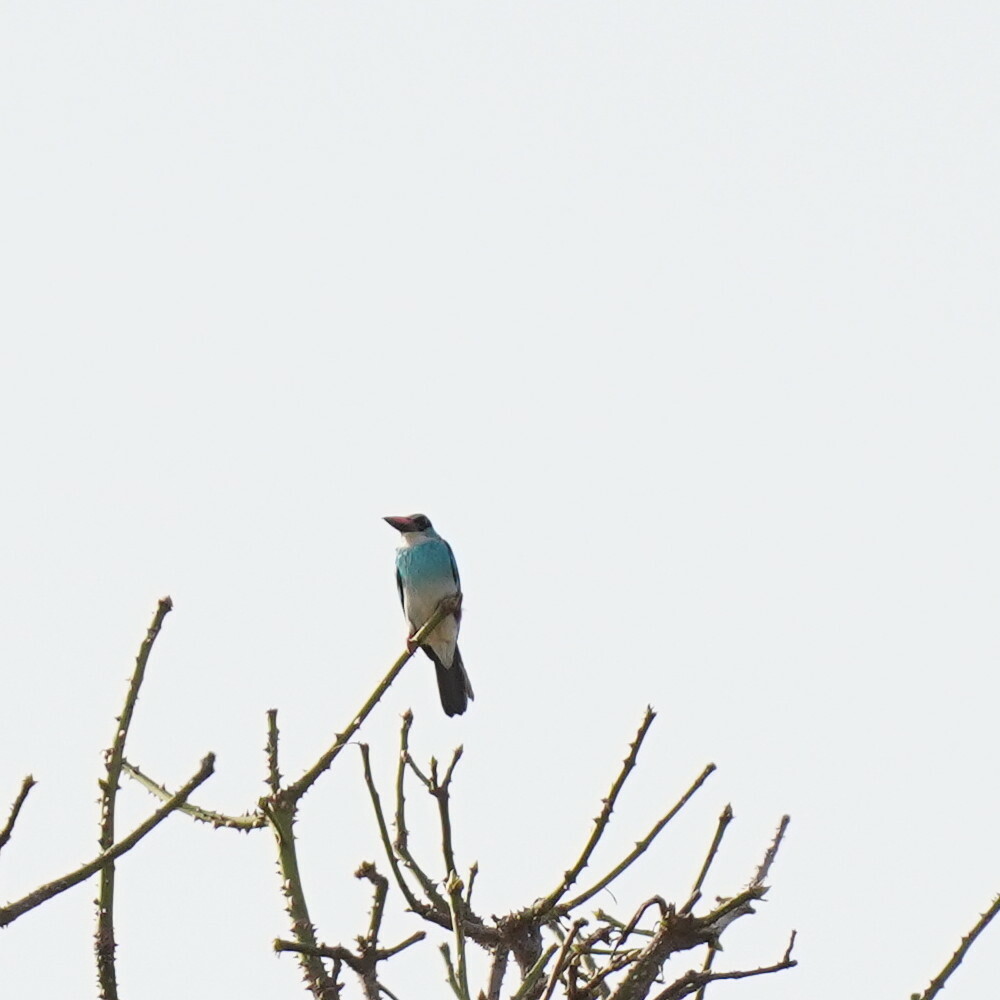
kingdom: Animalia
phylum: Chordata
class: Aves
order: Coraciiformes
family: Alcedinidae
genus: Halcyon
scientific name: Halcyon malimbica
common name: Blue-breasted kingfisher
